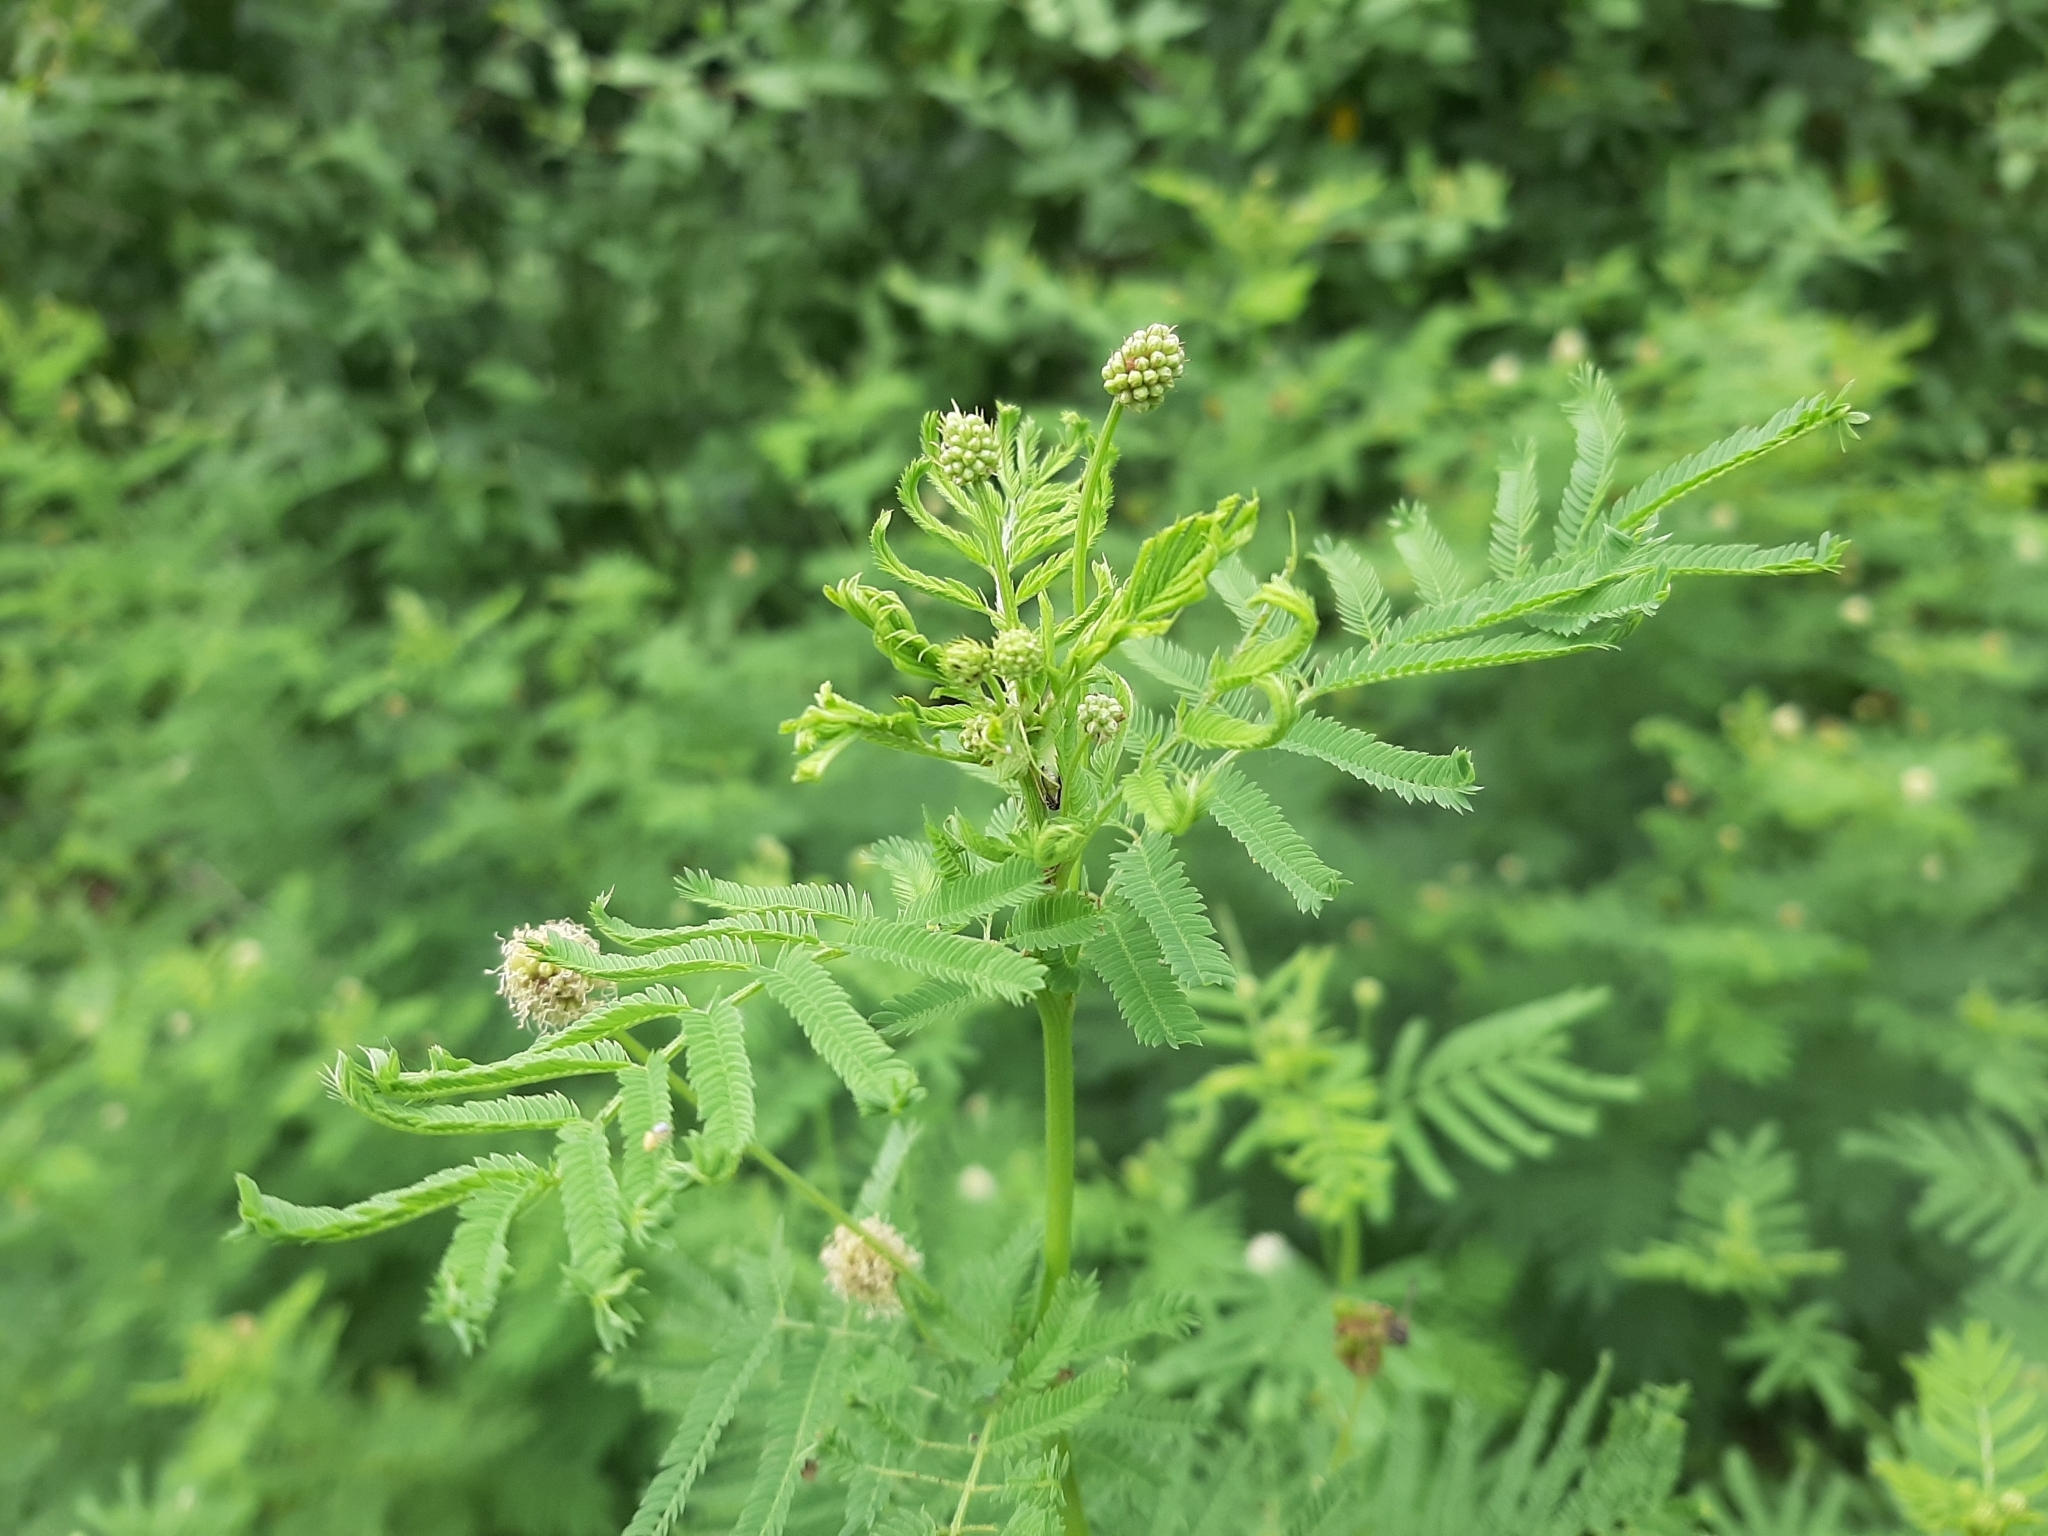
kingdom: Plantae
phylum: Tracheophyta
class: Magnoliopsida
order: Fabales
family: Fabaceae
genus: Desmanthus
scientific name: Desmanthus illinoensis
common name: Illinois bundle-flower
